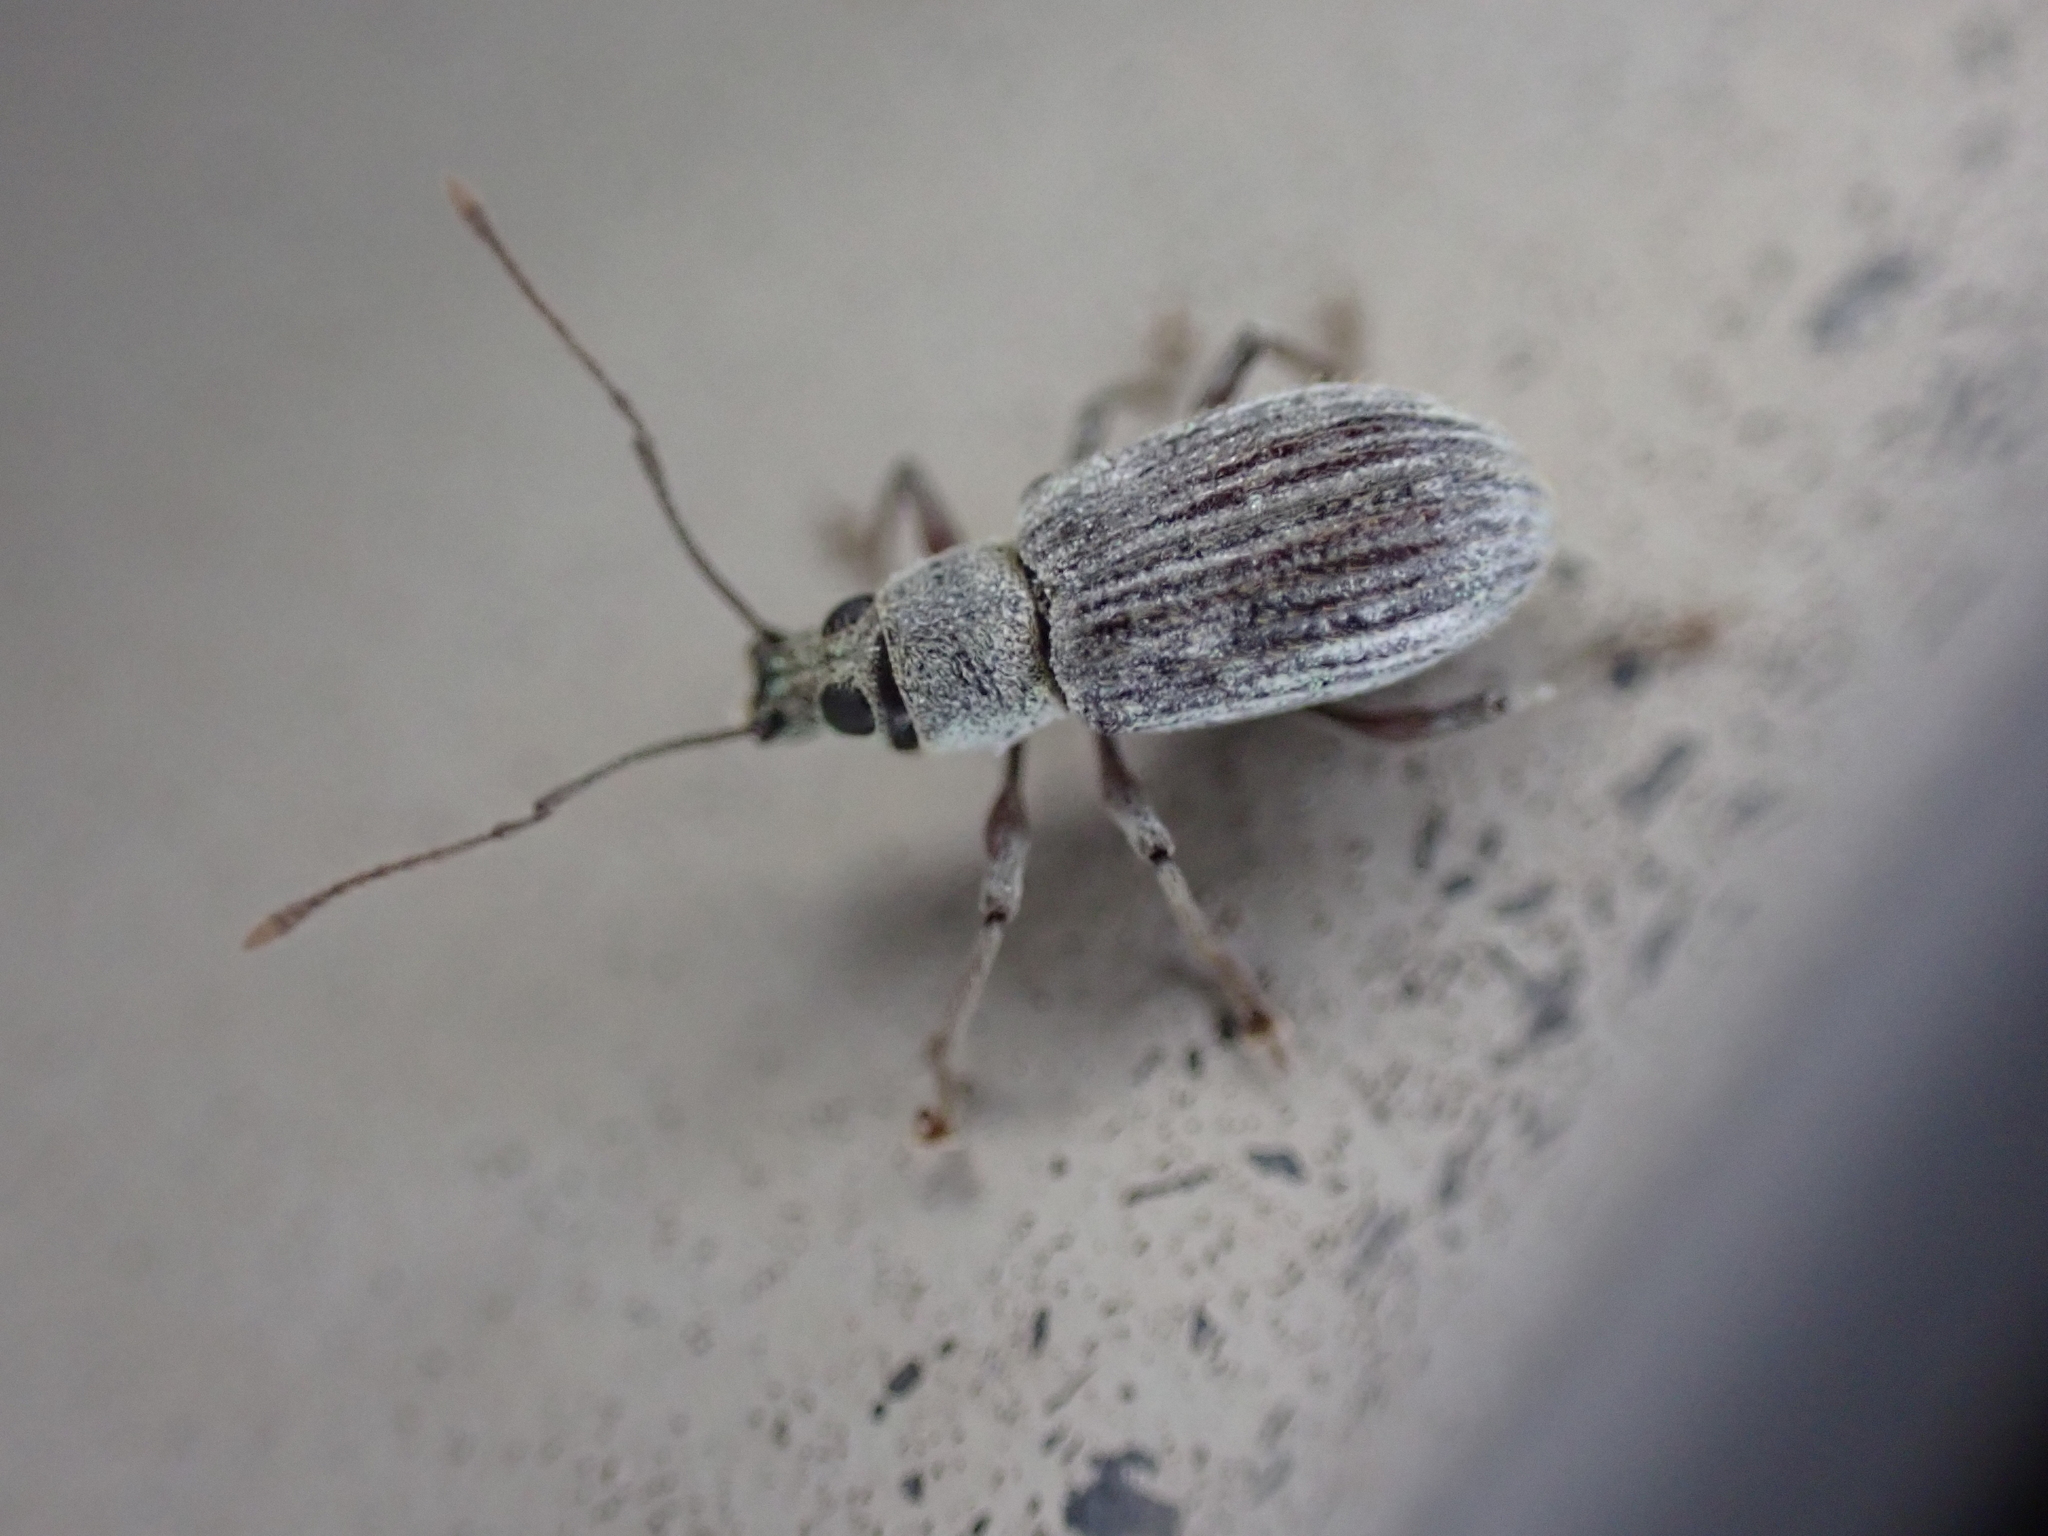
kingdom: Animalia
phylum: Arthropoda
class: Insecta
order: Coleoptera
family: Curculionidae
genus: Cyrtepistomus
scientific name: Cyrtepistomus castaneus
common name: Weevil
